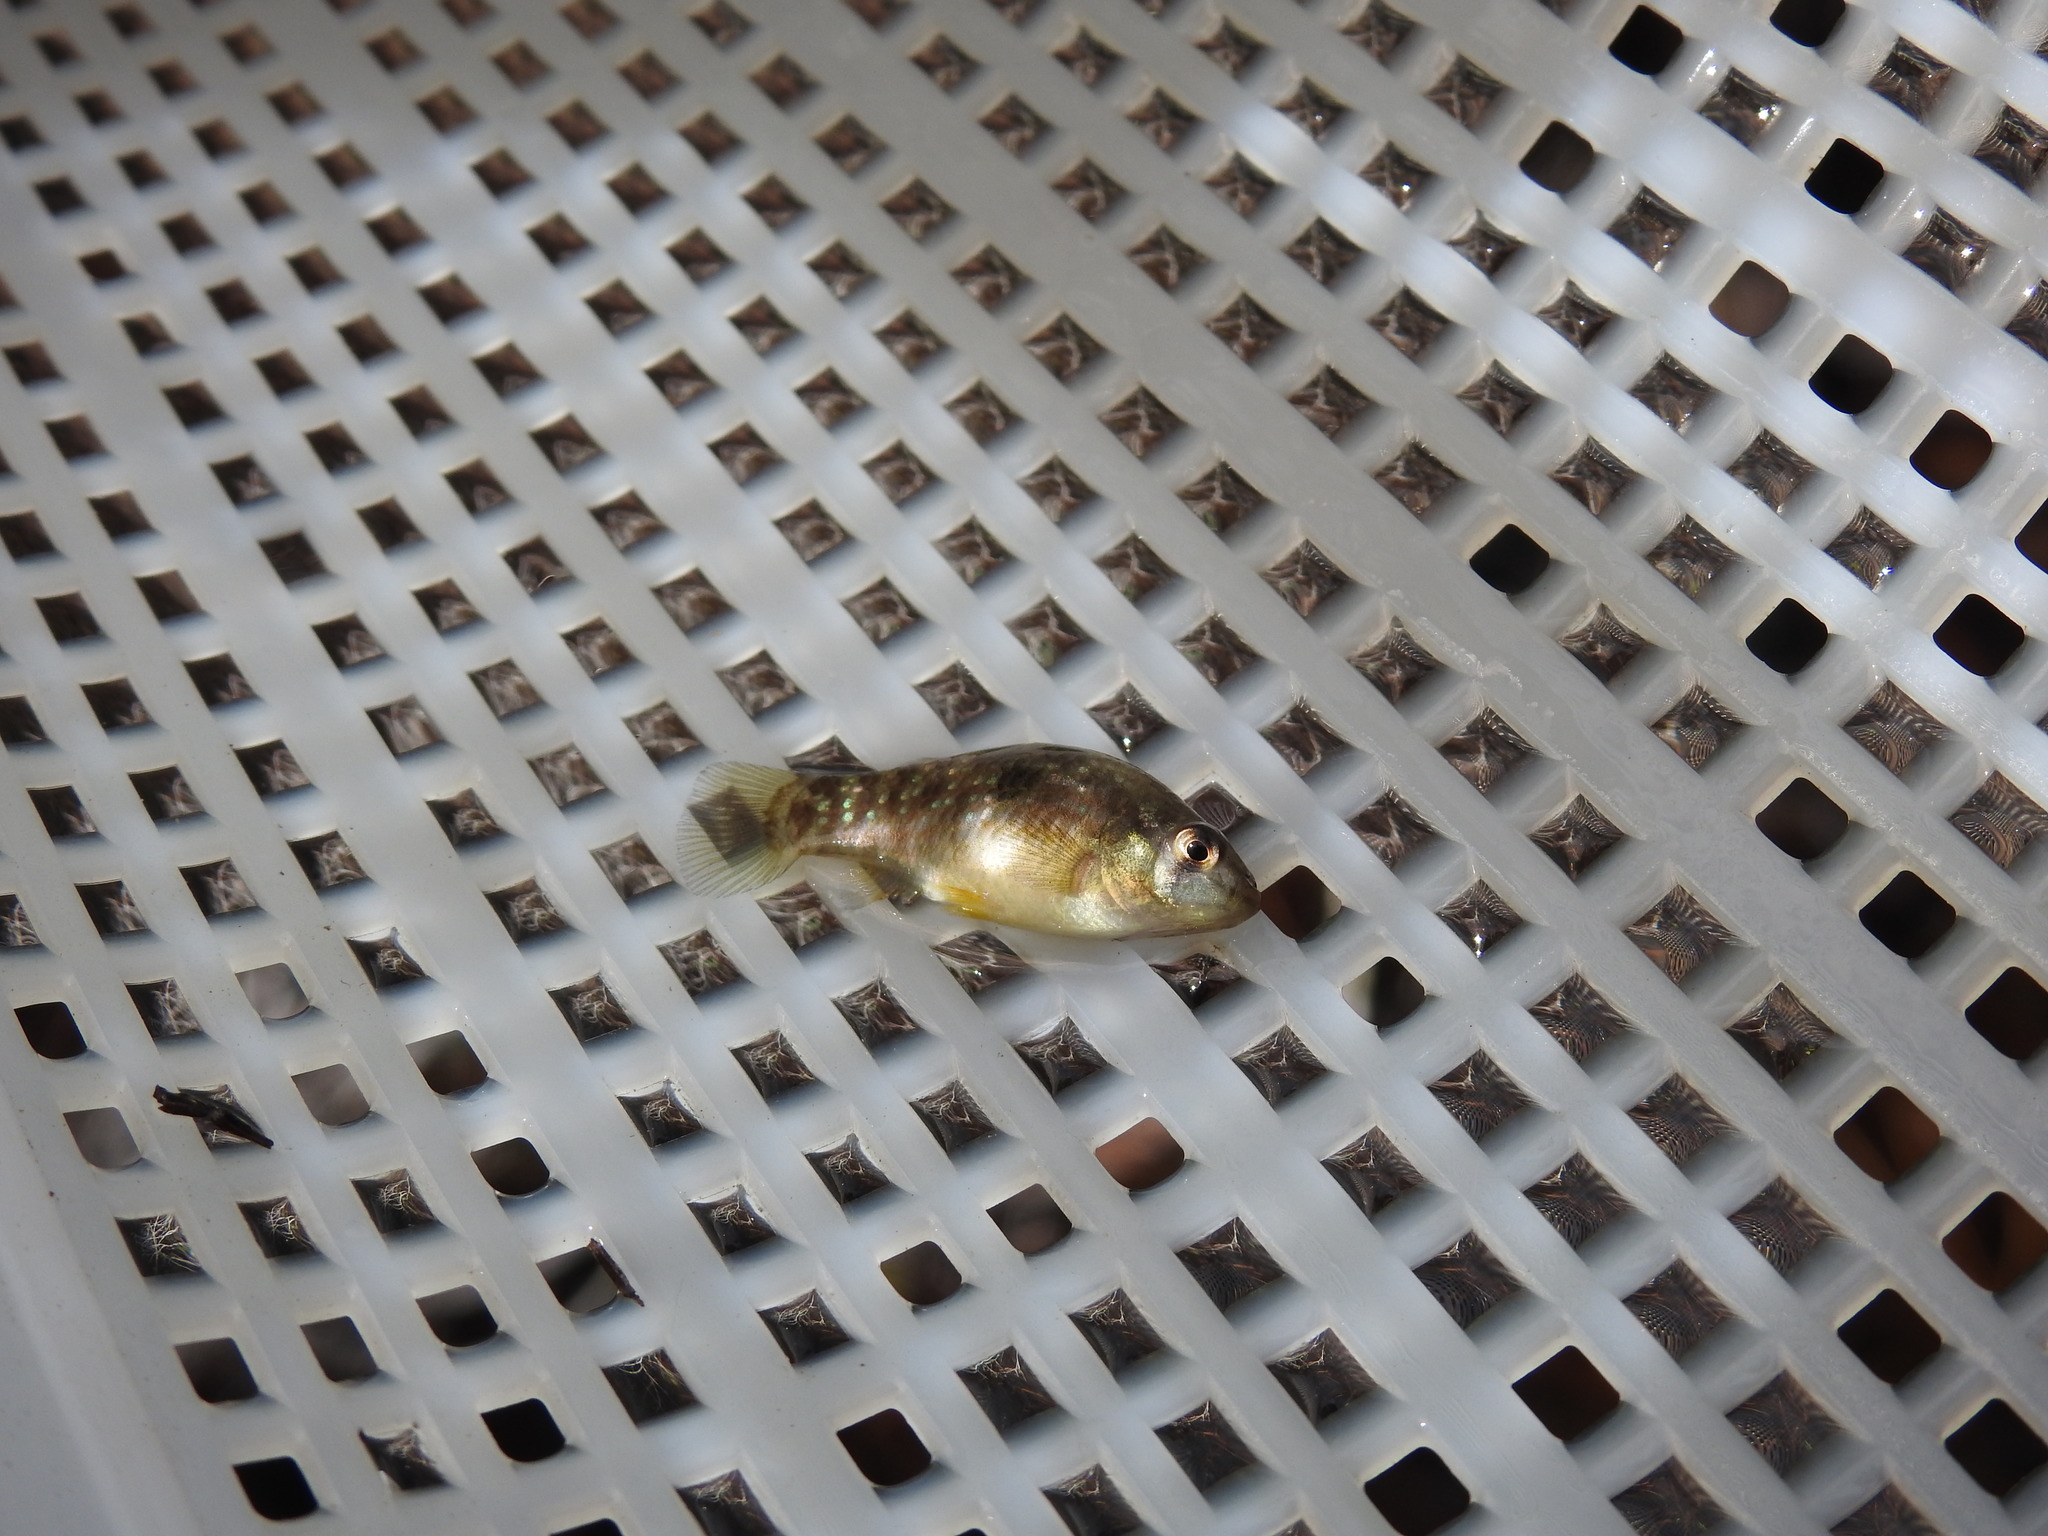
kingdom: Animalia
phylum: Chordata
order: Cyprinodontiformes
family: Cyprinodontidae
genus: Jordanella
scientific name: Jordanella floridae
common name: Flagfish
